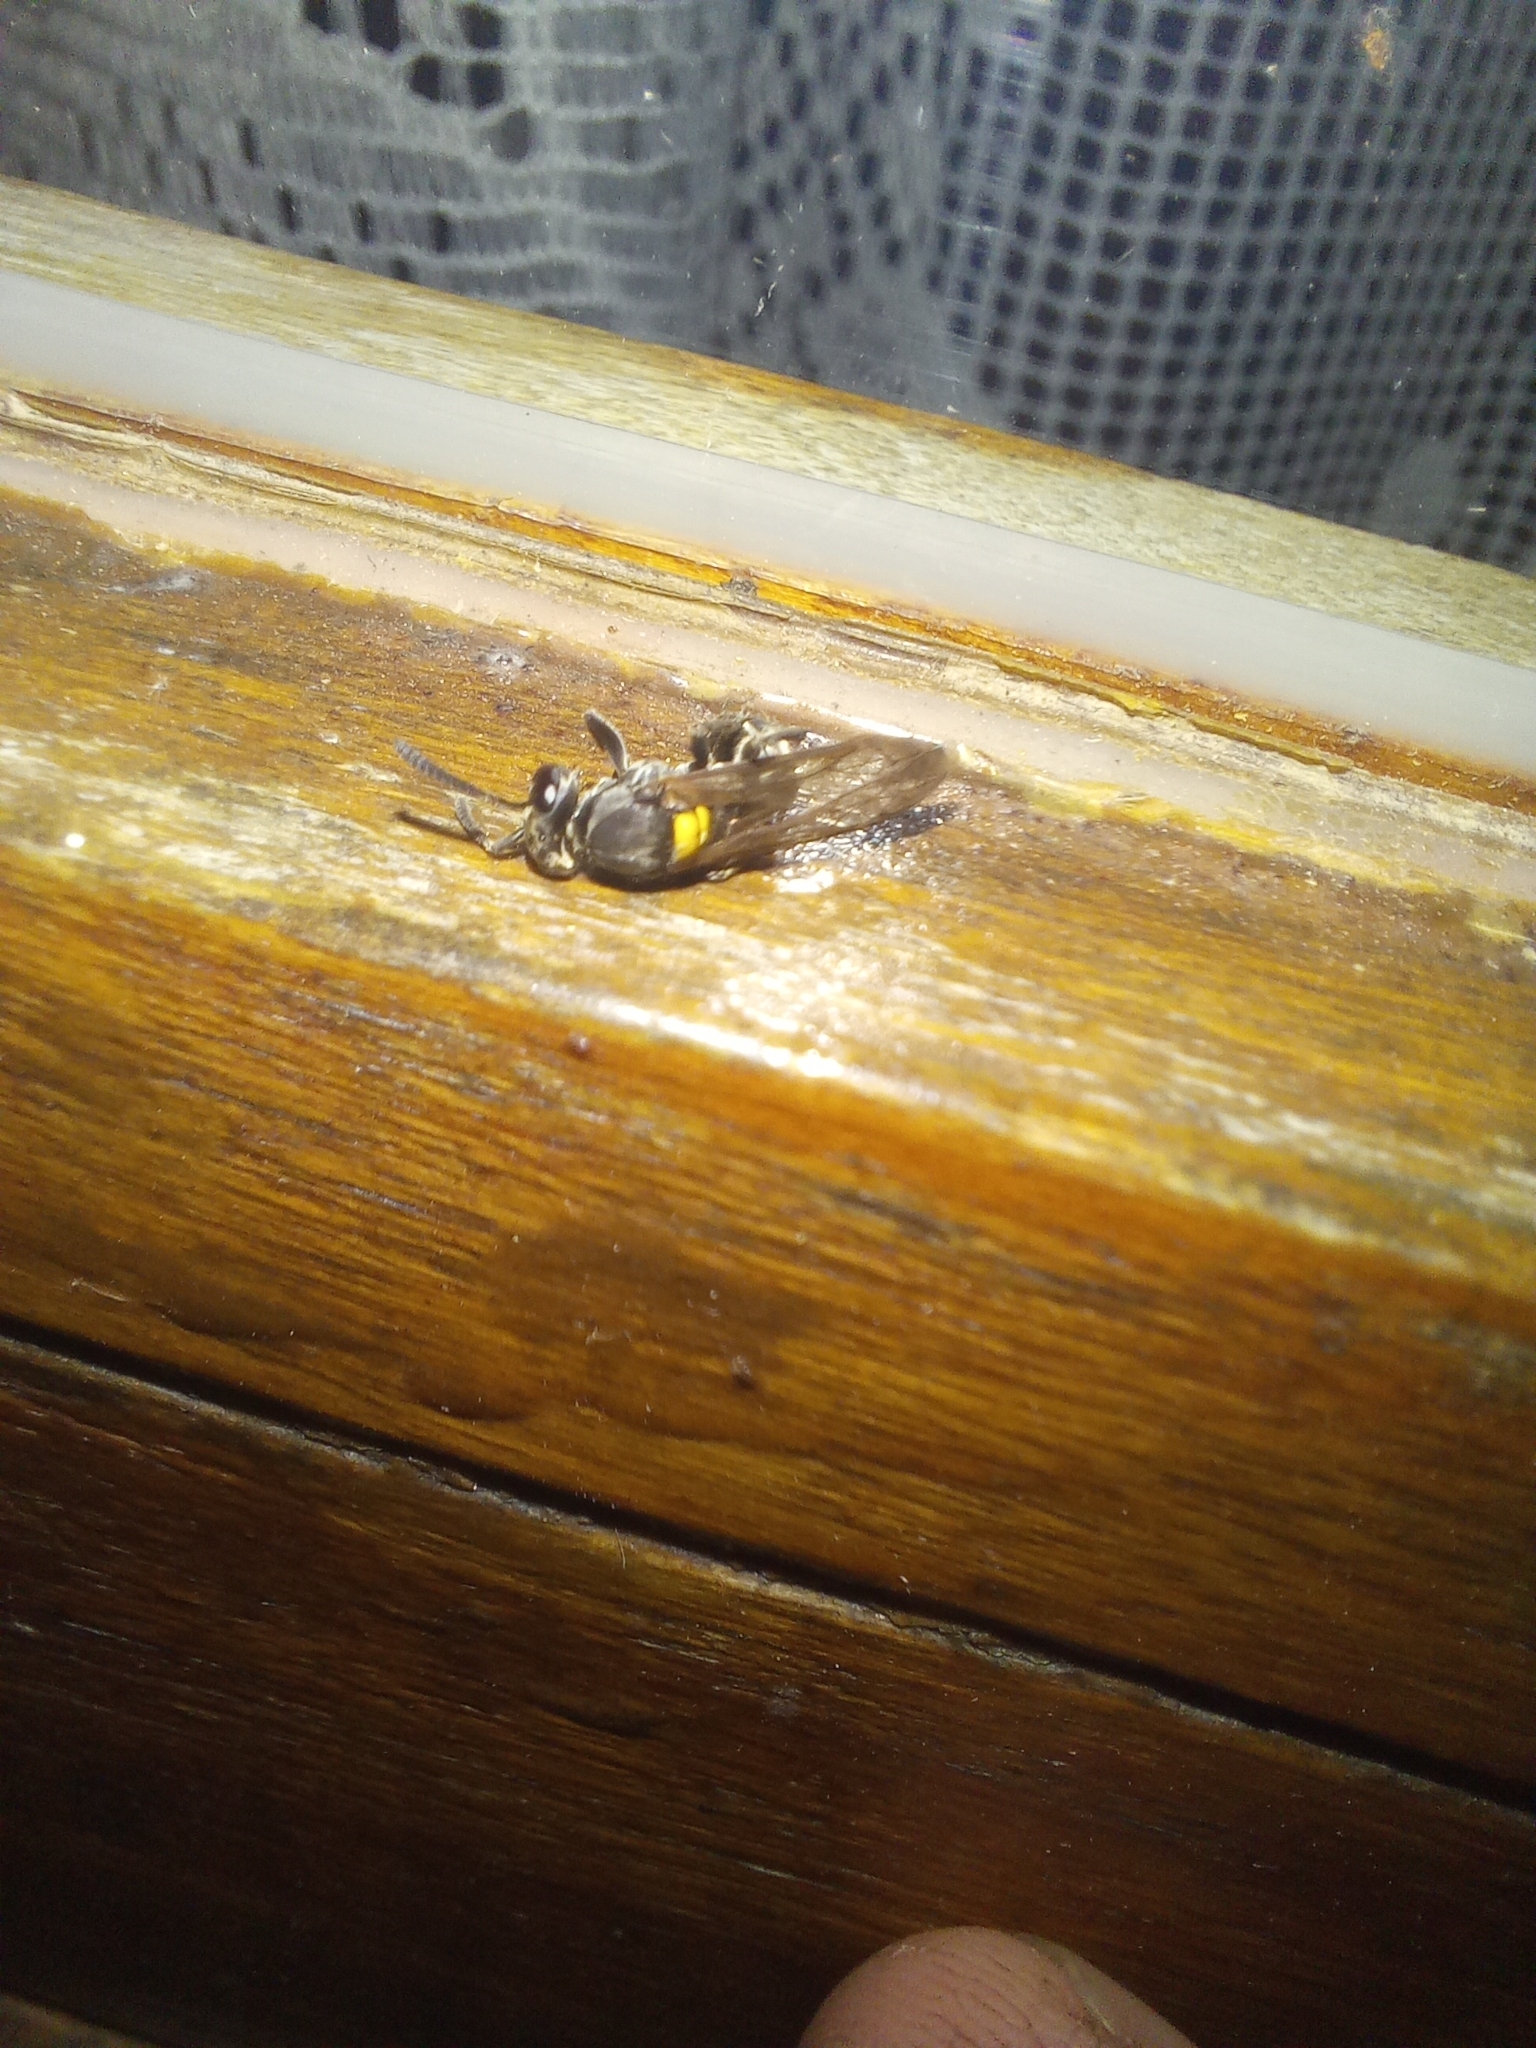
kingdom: Animalia
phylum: Arthropoda
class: Insecta
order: Hymenoptera
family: Eumenidae
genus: Polybia
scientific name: Polybia scutellaris
